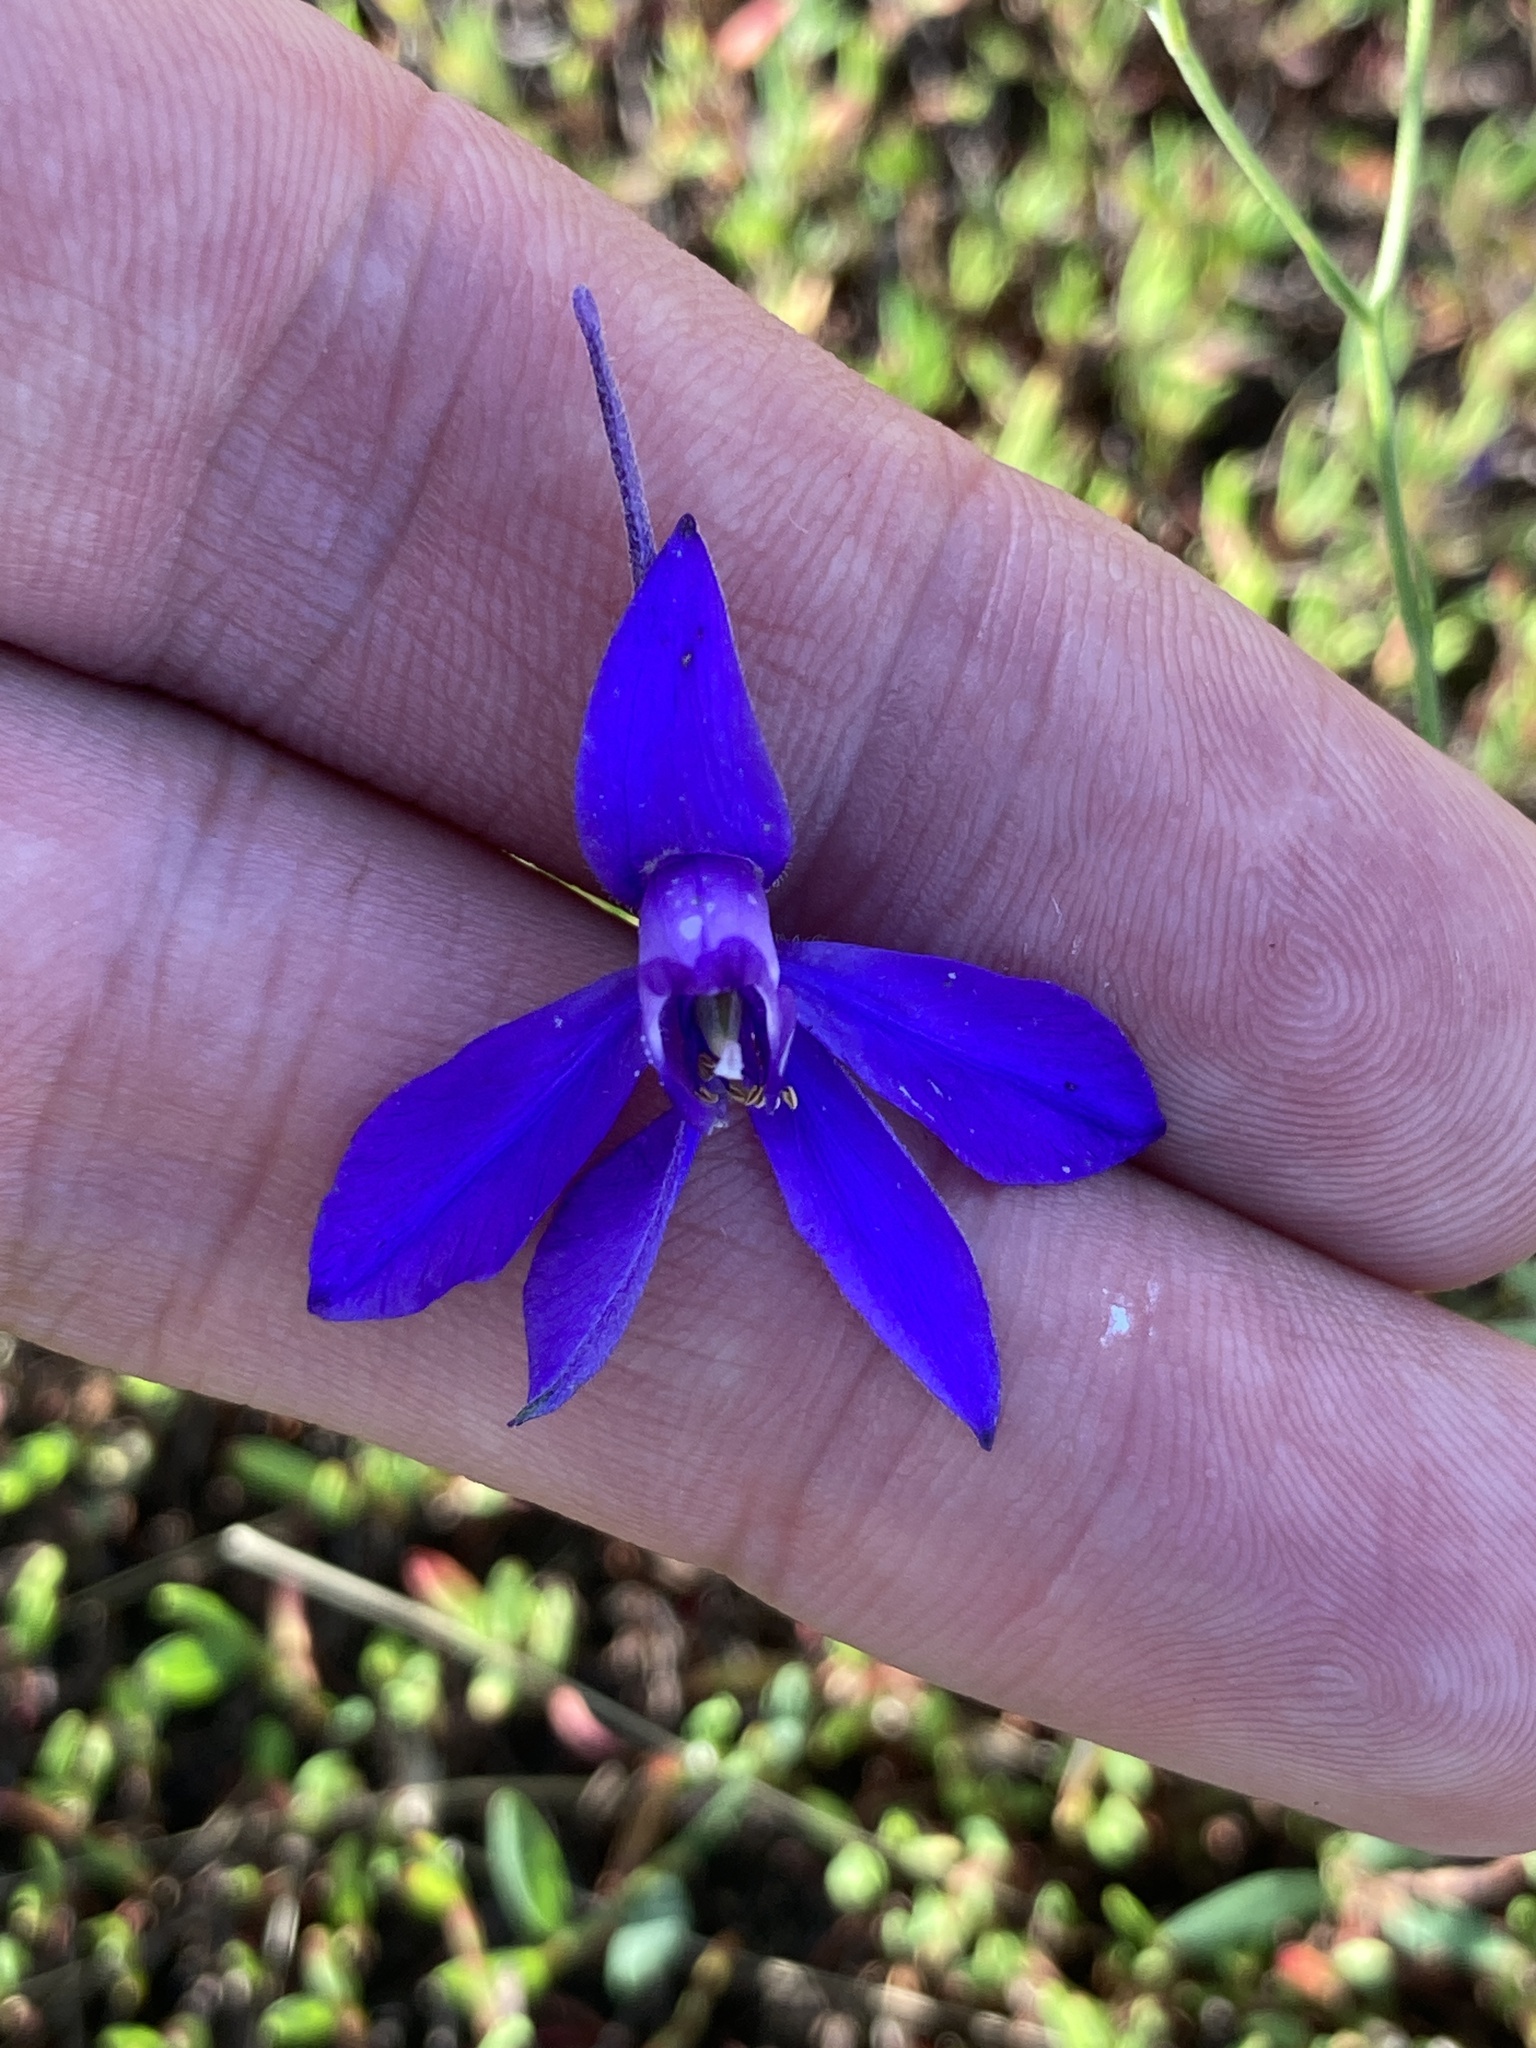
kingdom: Plantae
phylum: Tracheophyta
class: Magnoliopsida
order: Ranunculales
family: Ranunculaceae
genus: Delphinium
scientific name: Delphinium consolida
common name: Branching larkspur
